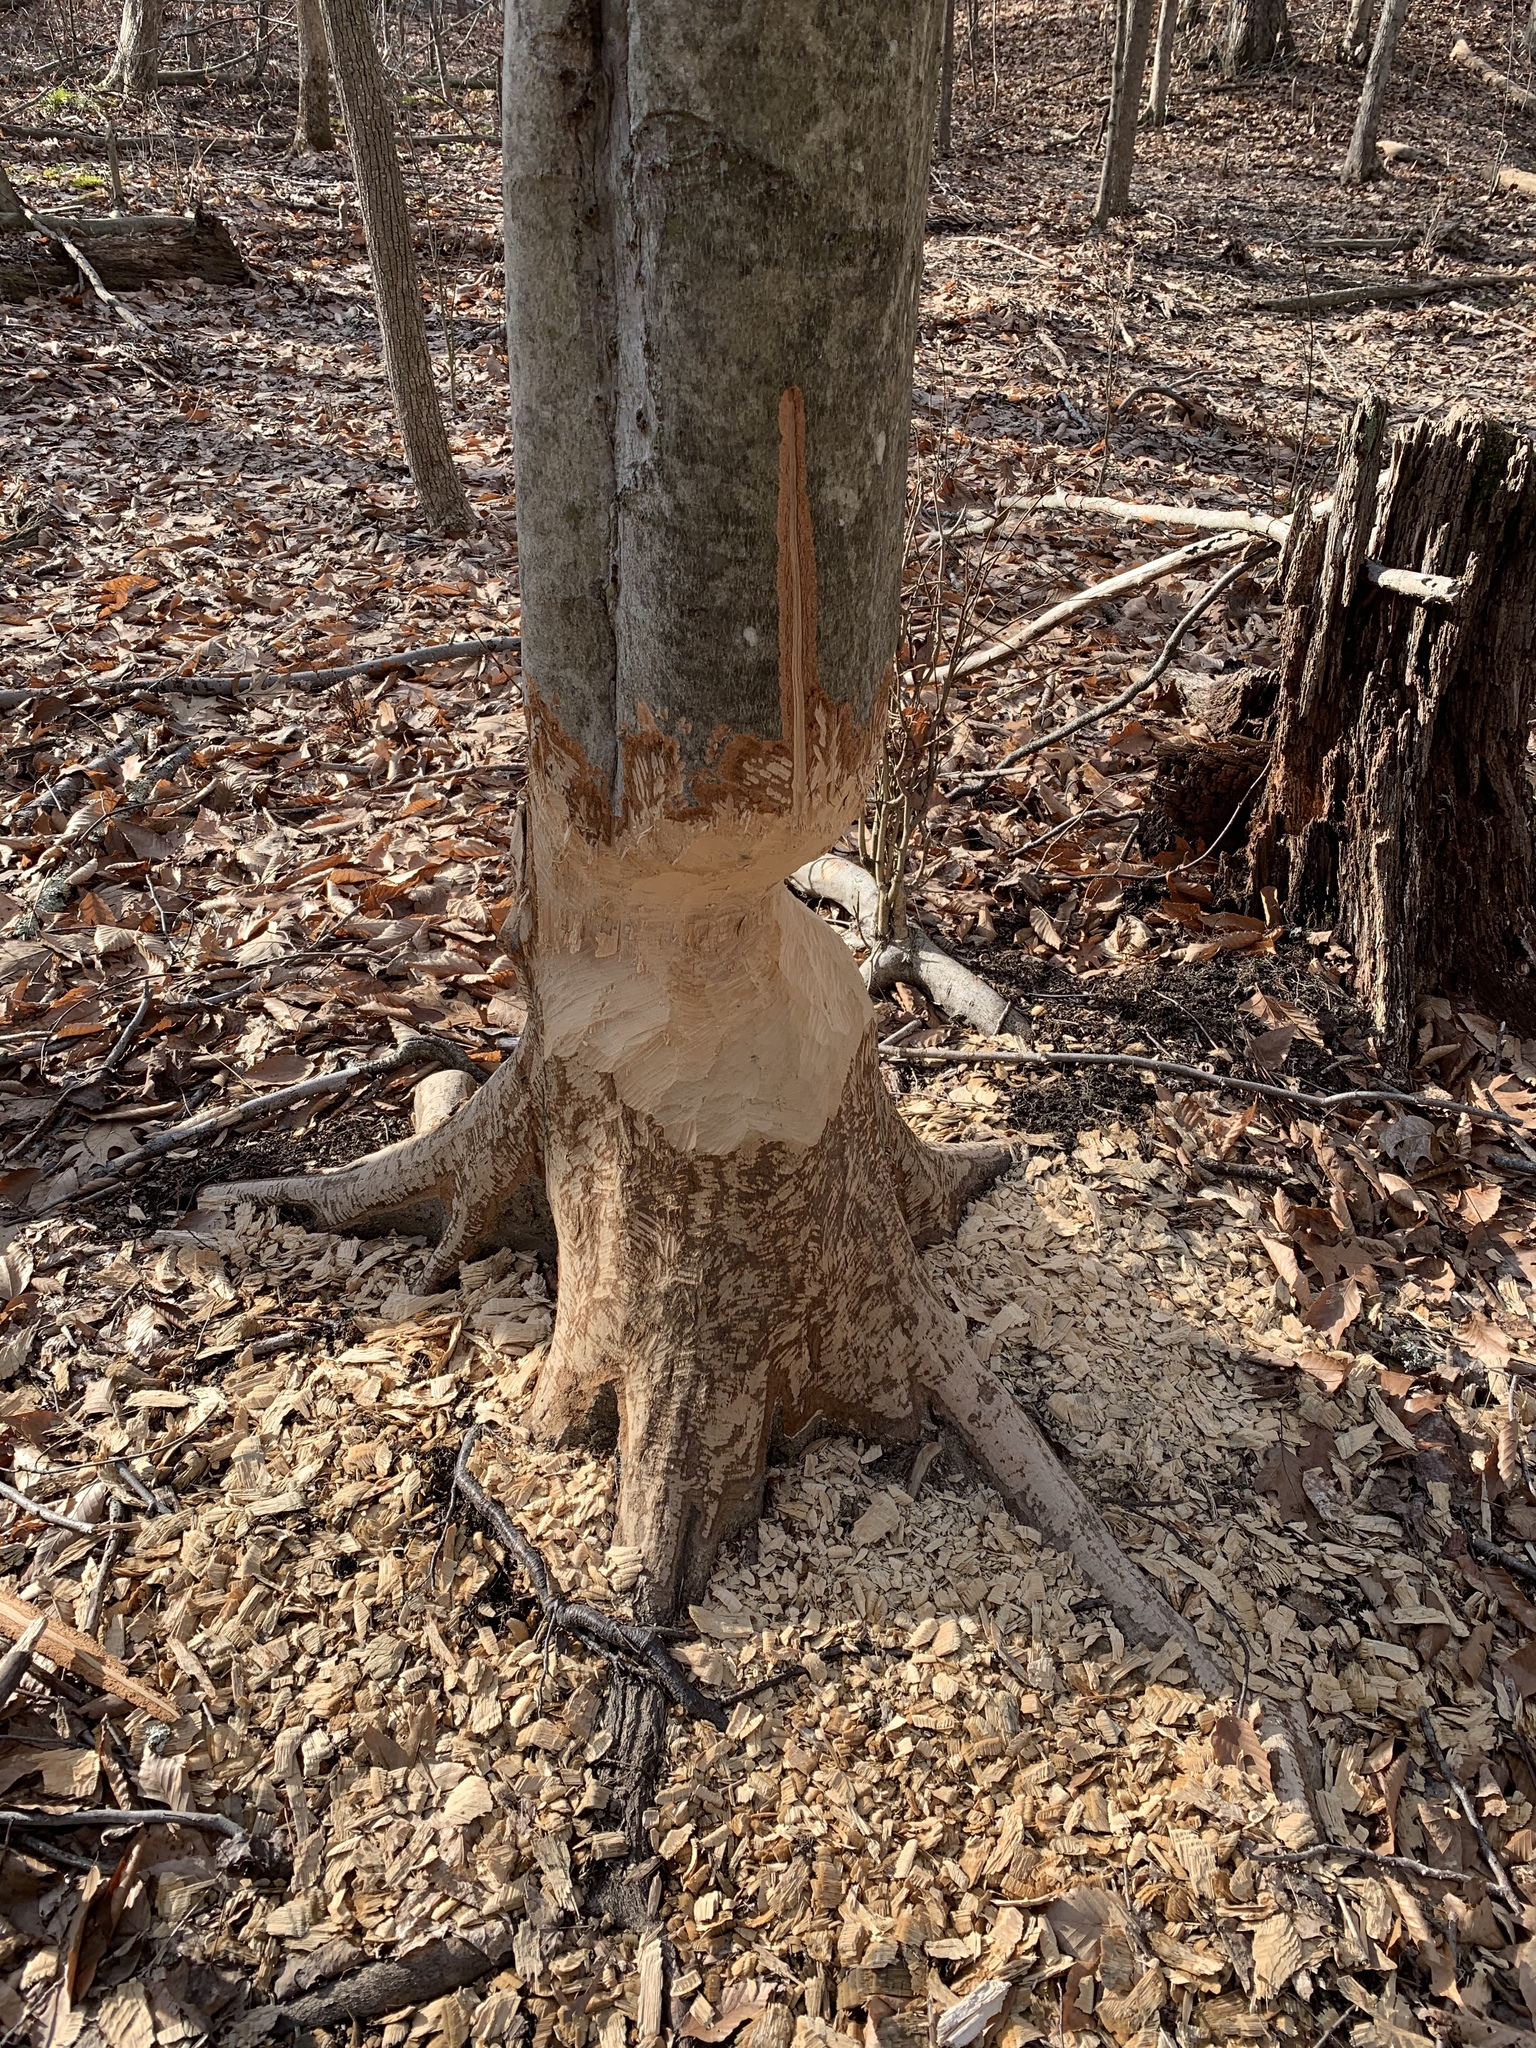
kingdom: Animalia
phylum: Chordata
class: Mammalia
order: Rodentia
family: Castoridae
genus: Castor
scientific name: Castor canadensis
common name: American beaver
